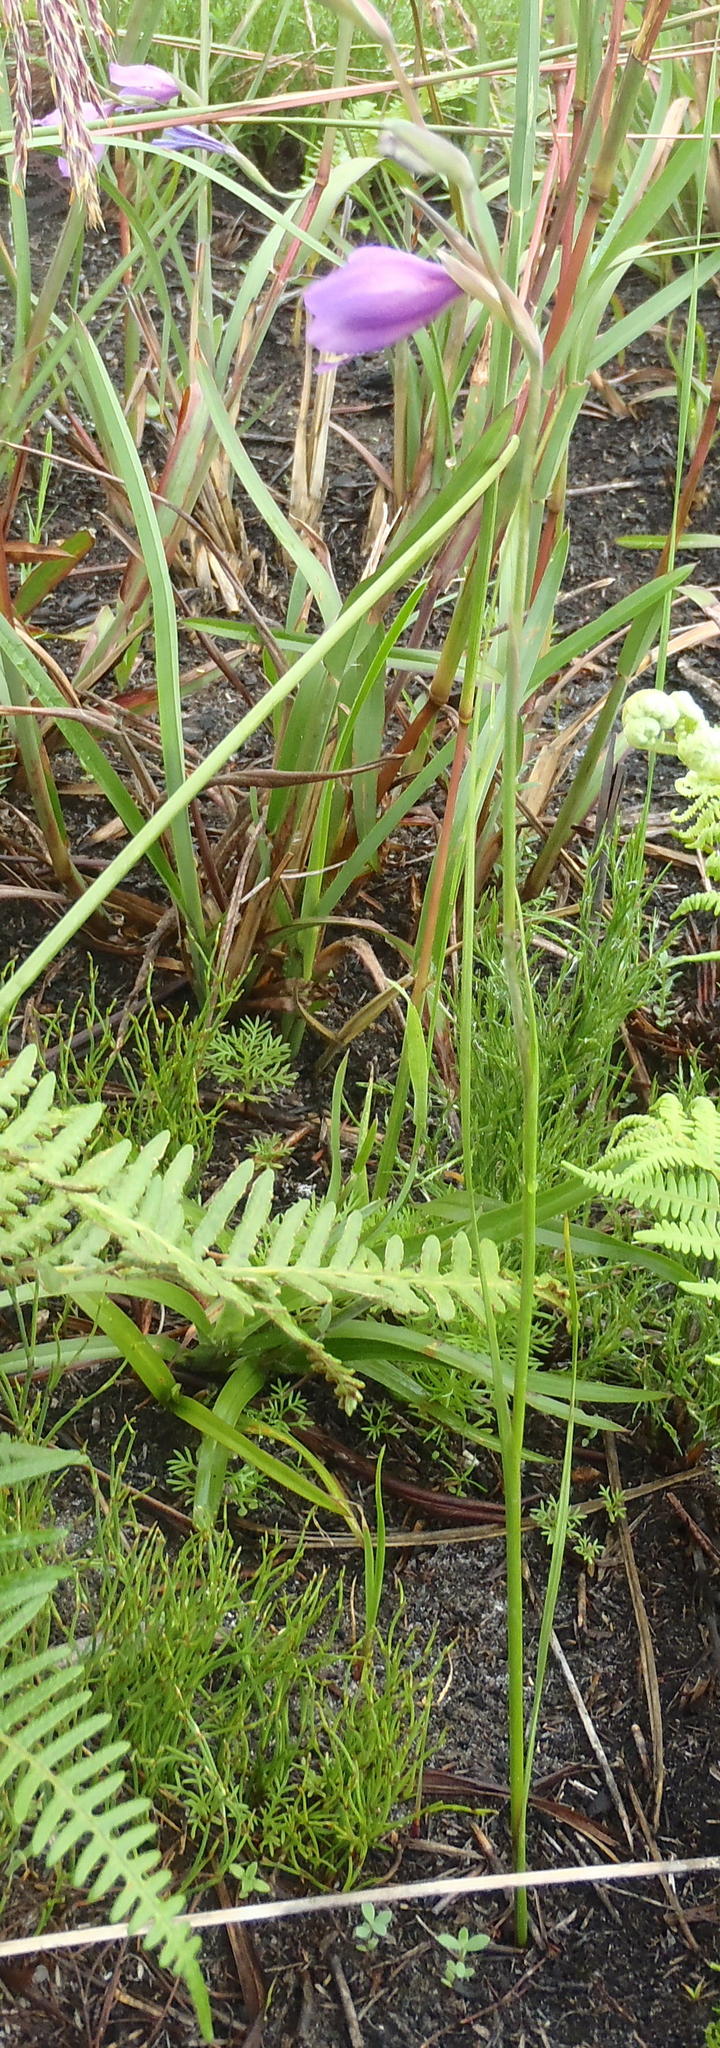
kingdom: Plantae
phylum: Tracheophyta
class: Liliopsida
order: Asparagales
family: Iridaceae
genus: Gladiolus
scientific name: Gladiolus rogersii
